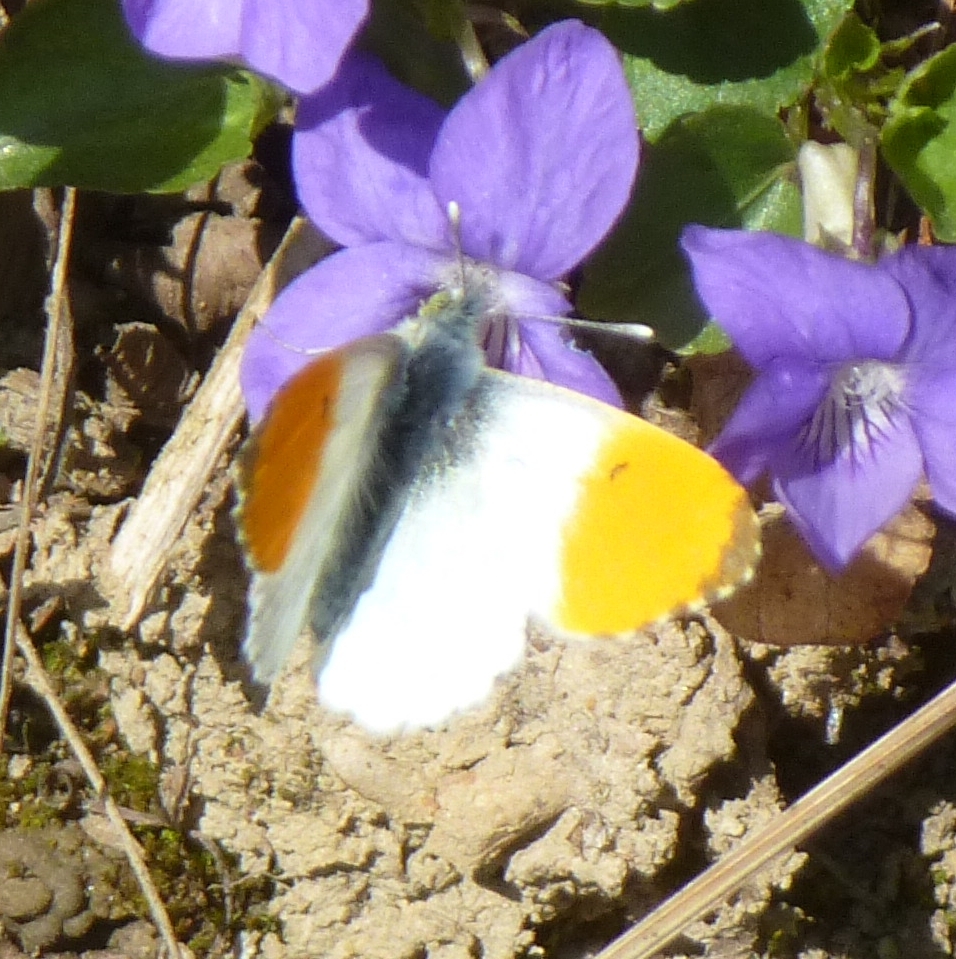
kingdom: Animalia
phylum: Arthropoda
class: Insecta
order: Lepidoptera
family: Pieridae
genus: Anthocharis
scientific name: Anthocharis cardamines
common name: Orange-tip
